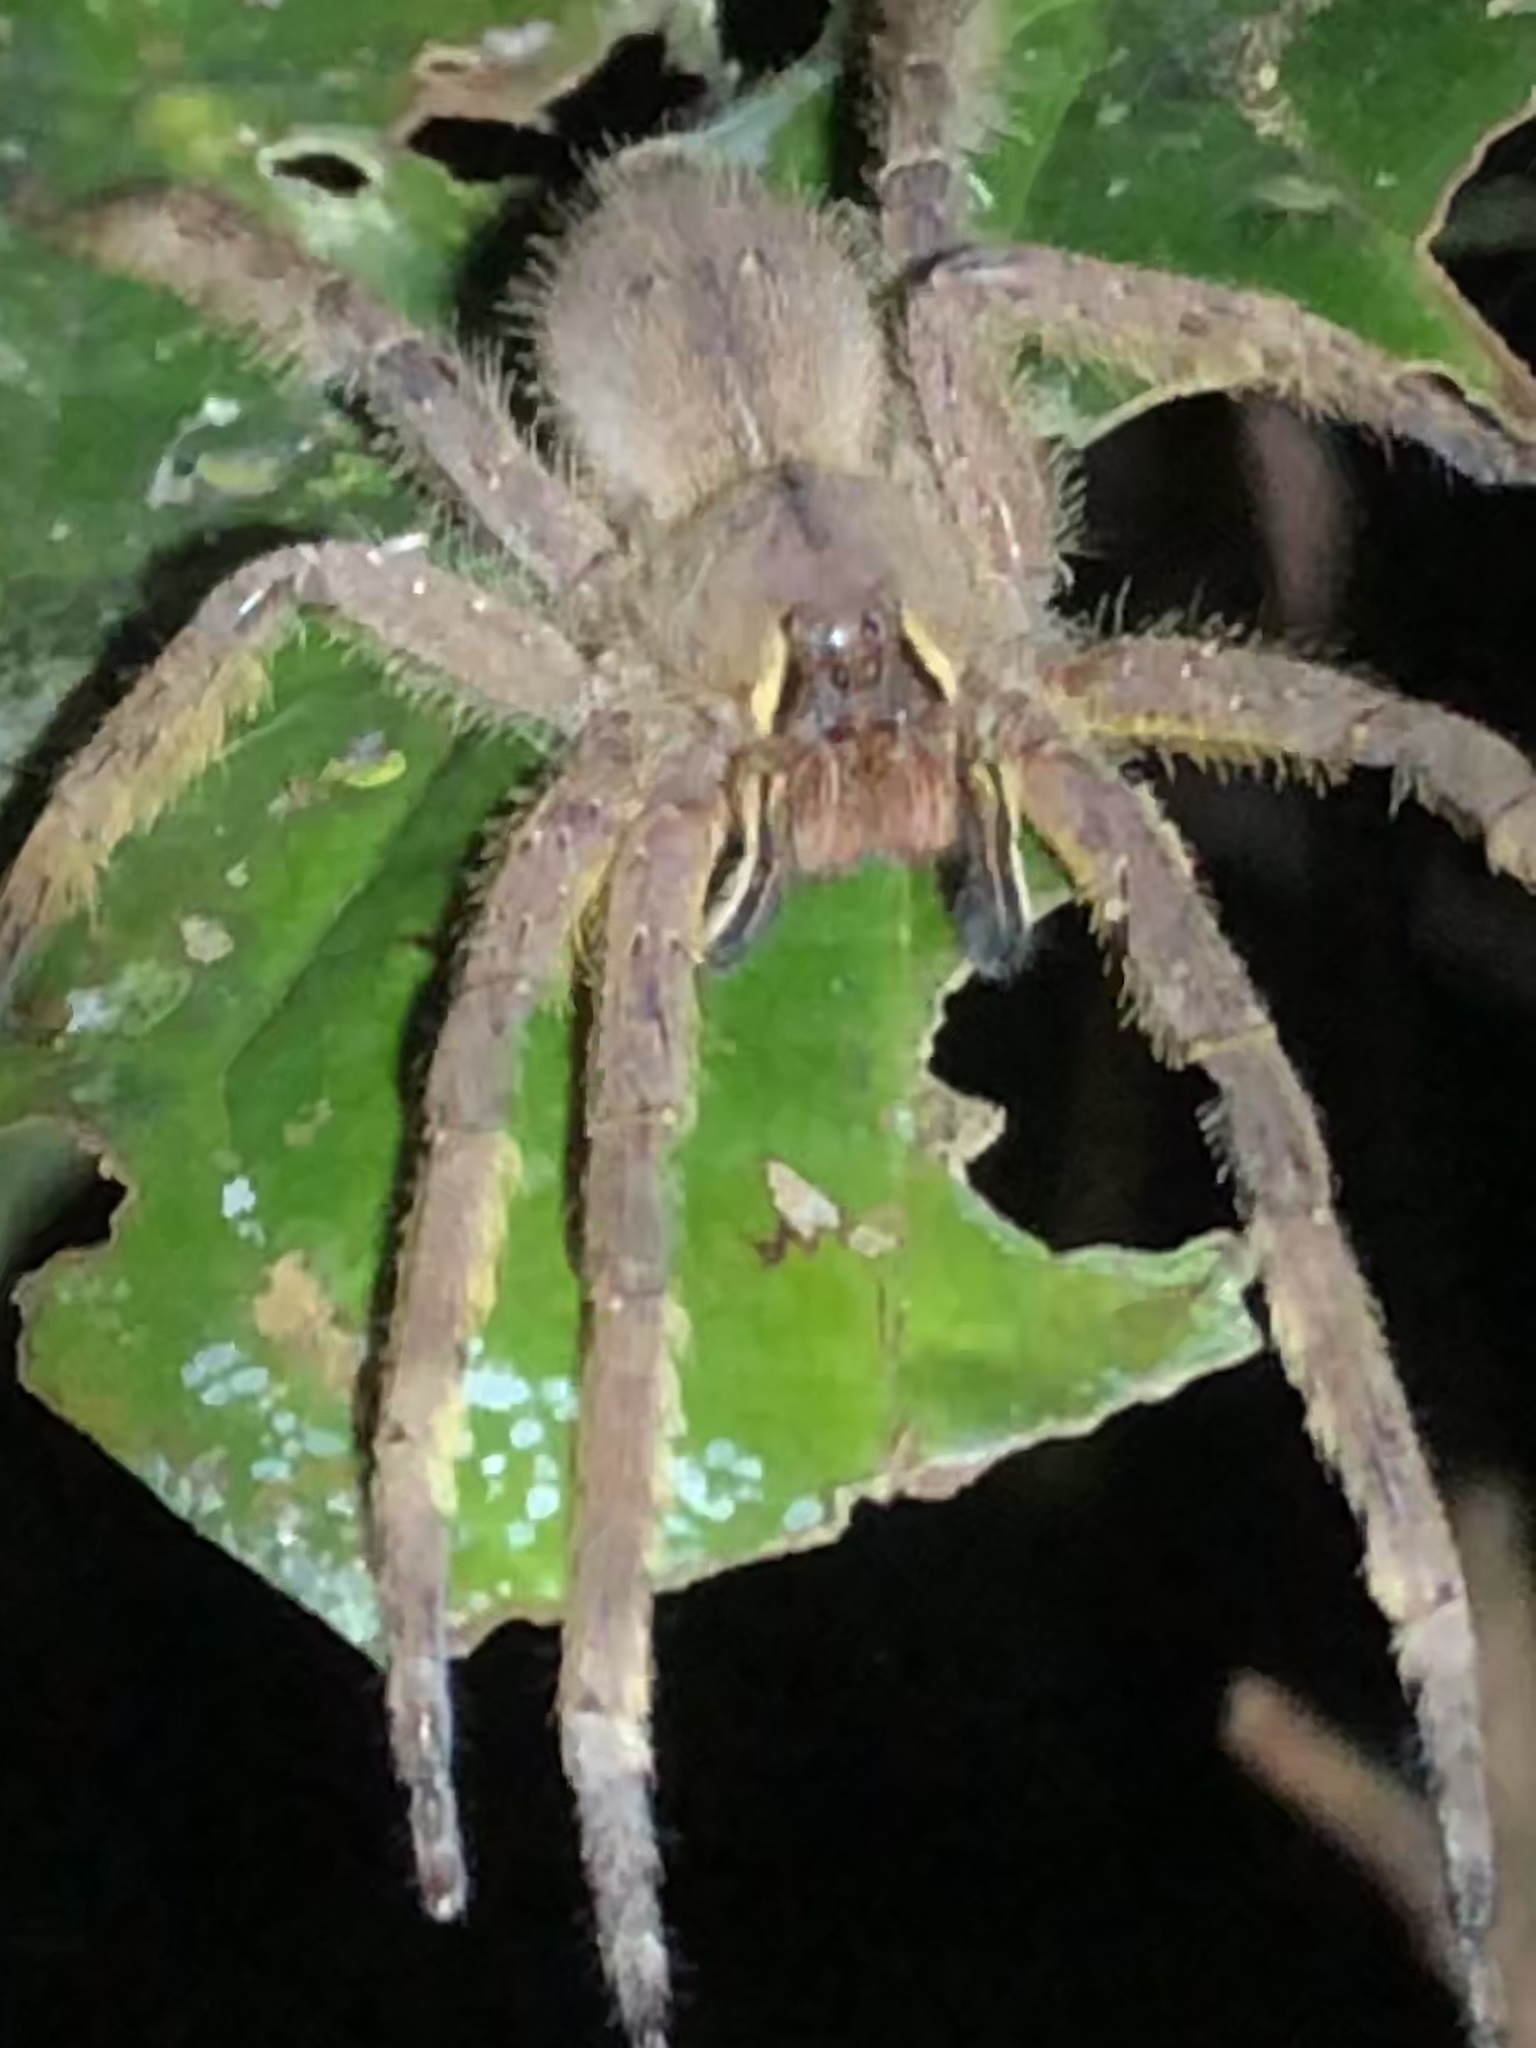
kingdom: Animalia
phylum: Arthropoda
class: Arachnida
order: Araneae
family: Ctenidae
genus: Phoneutria
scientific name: Phoneutria boliviensis
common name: Wandering spiders
